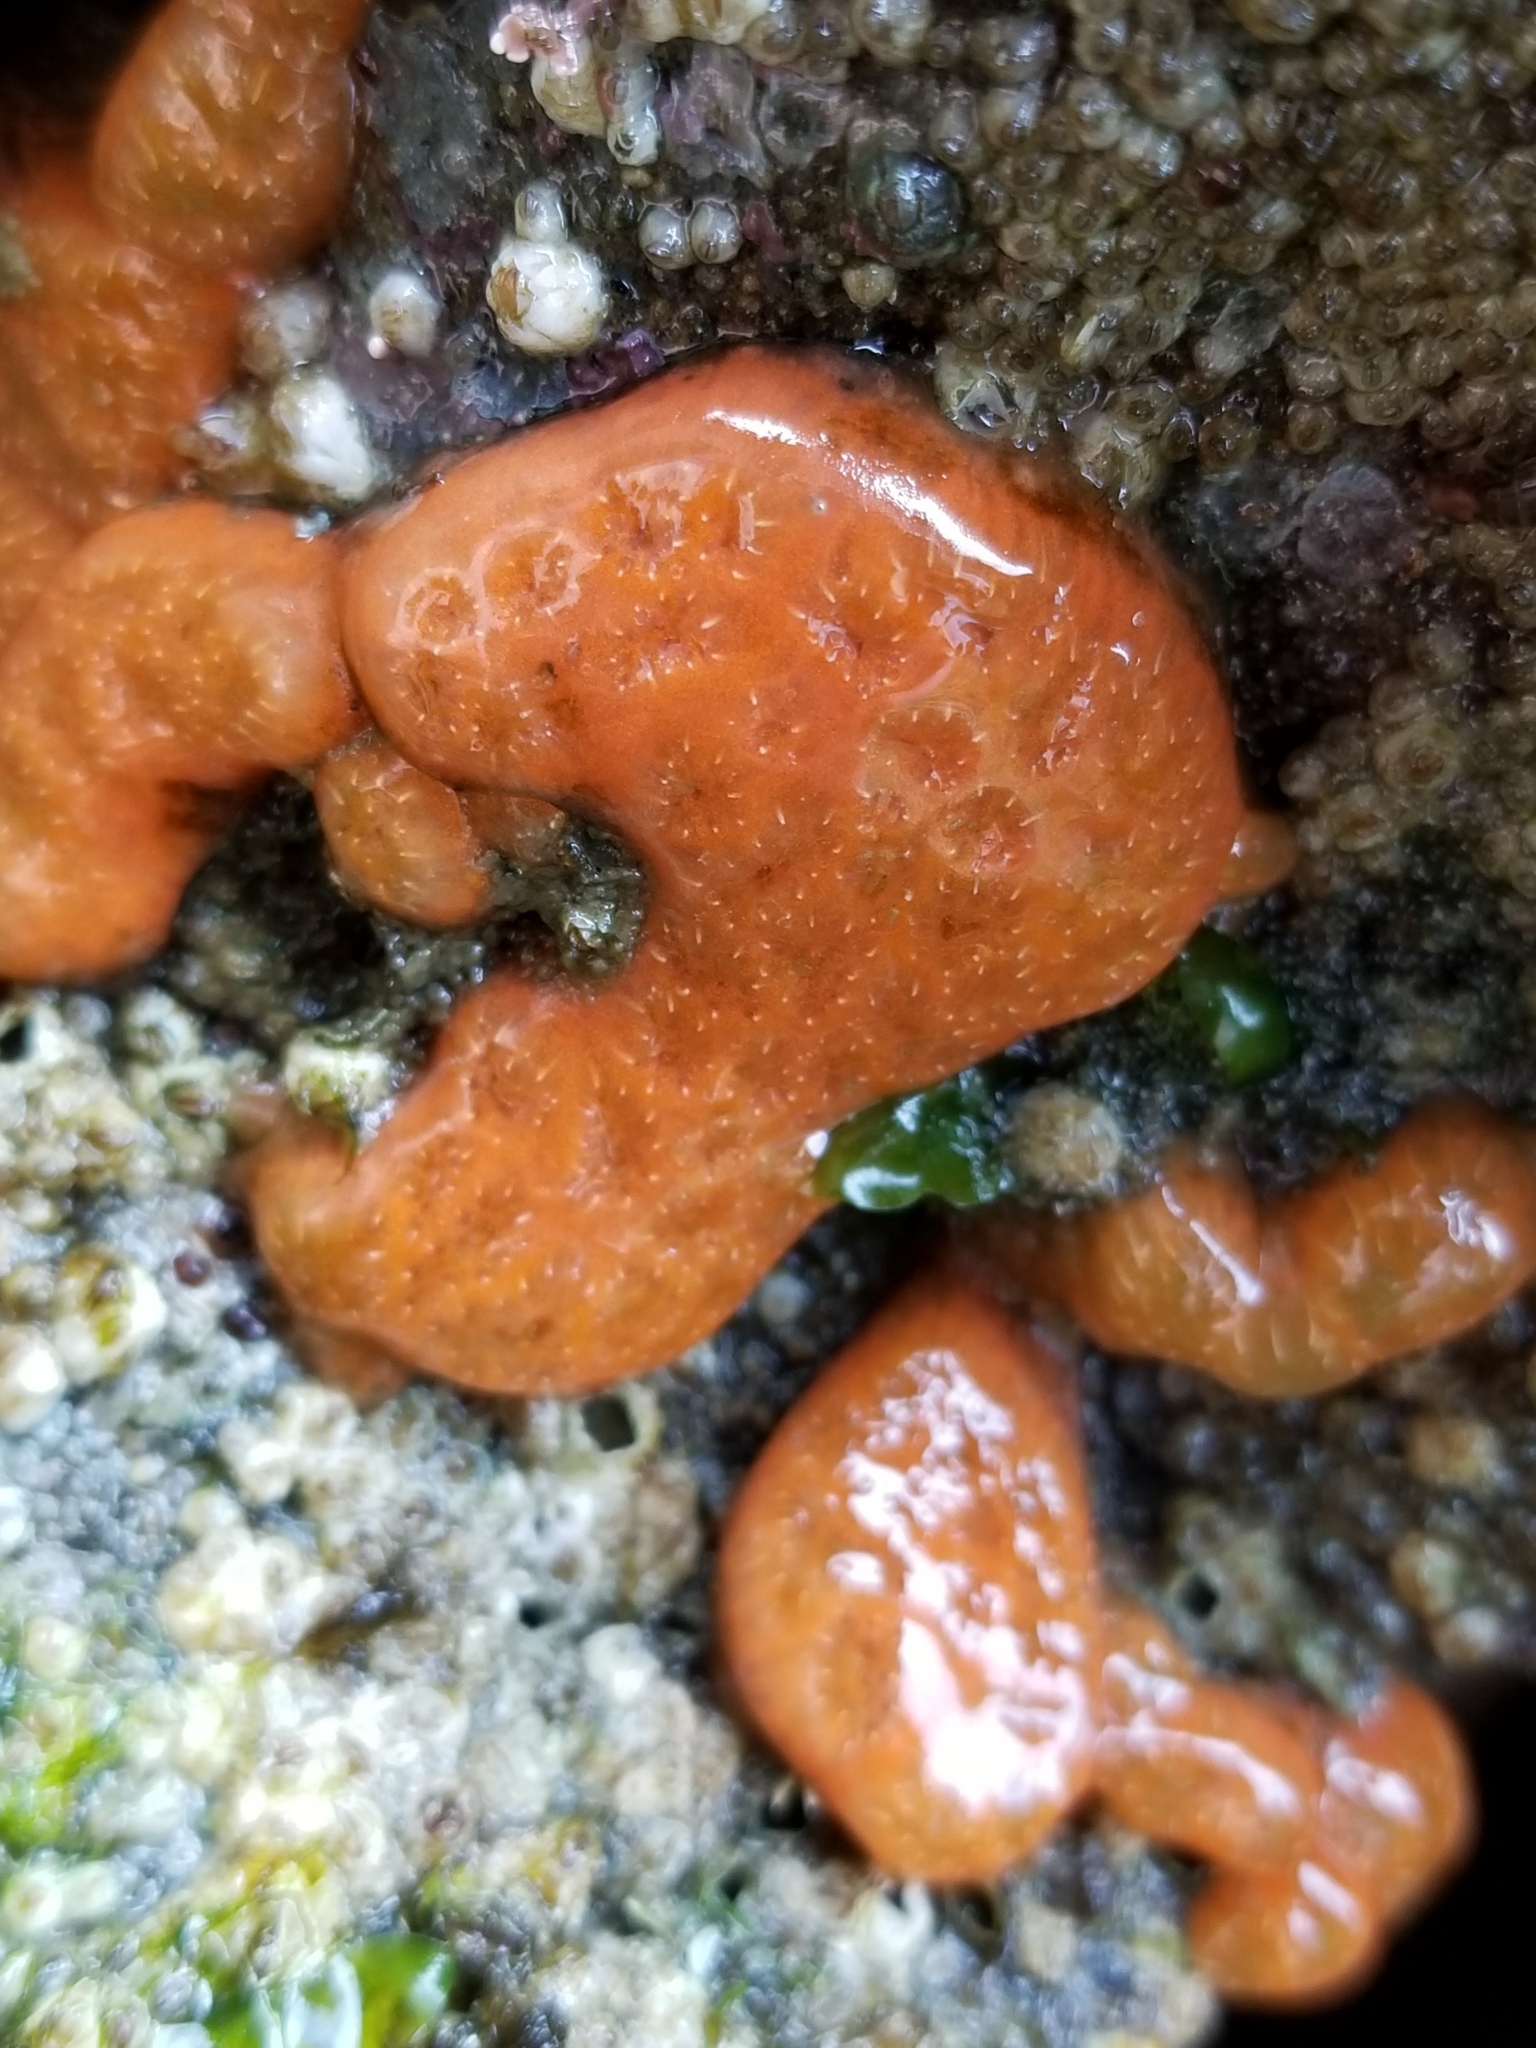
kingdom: Animalia
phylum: Chordata
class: Ascidiacea
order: Stolidobranchia
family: Styelidae
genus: Botrylloides
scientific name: Botrylloides violaceus
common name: Colonial sea squirt
